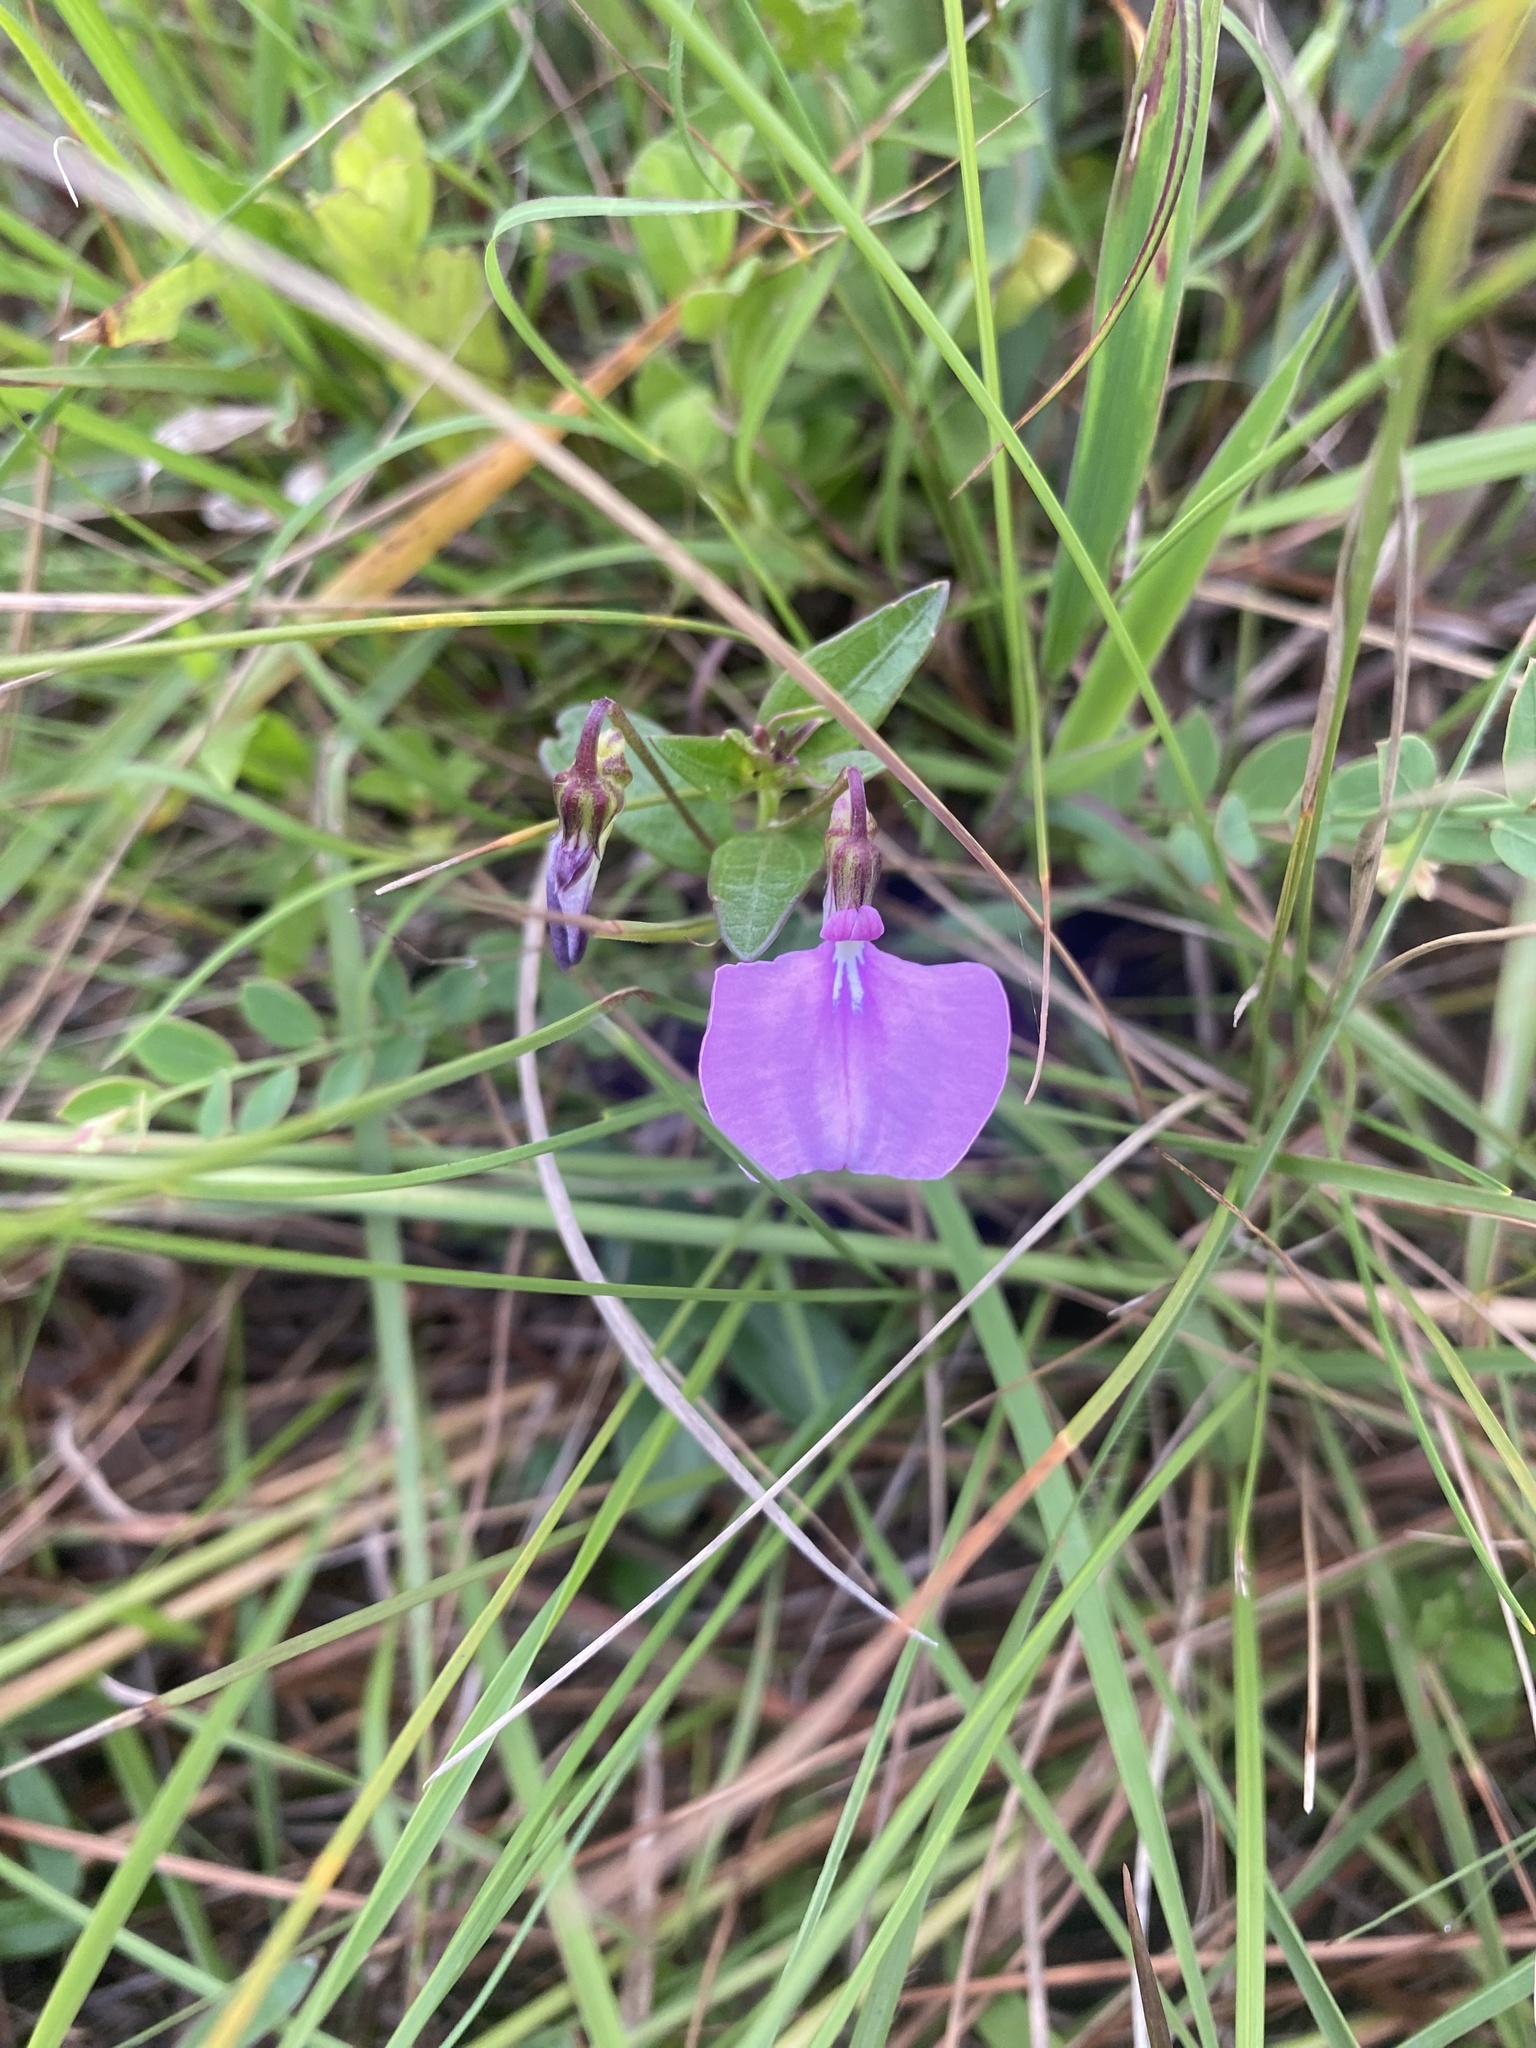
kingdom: Plantae
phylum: Tracheophyta
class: Magnoliopsida
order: Malpighiales
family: Violaceae
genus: Pigea
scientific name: Pigea enneasperma
